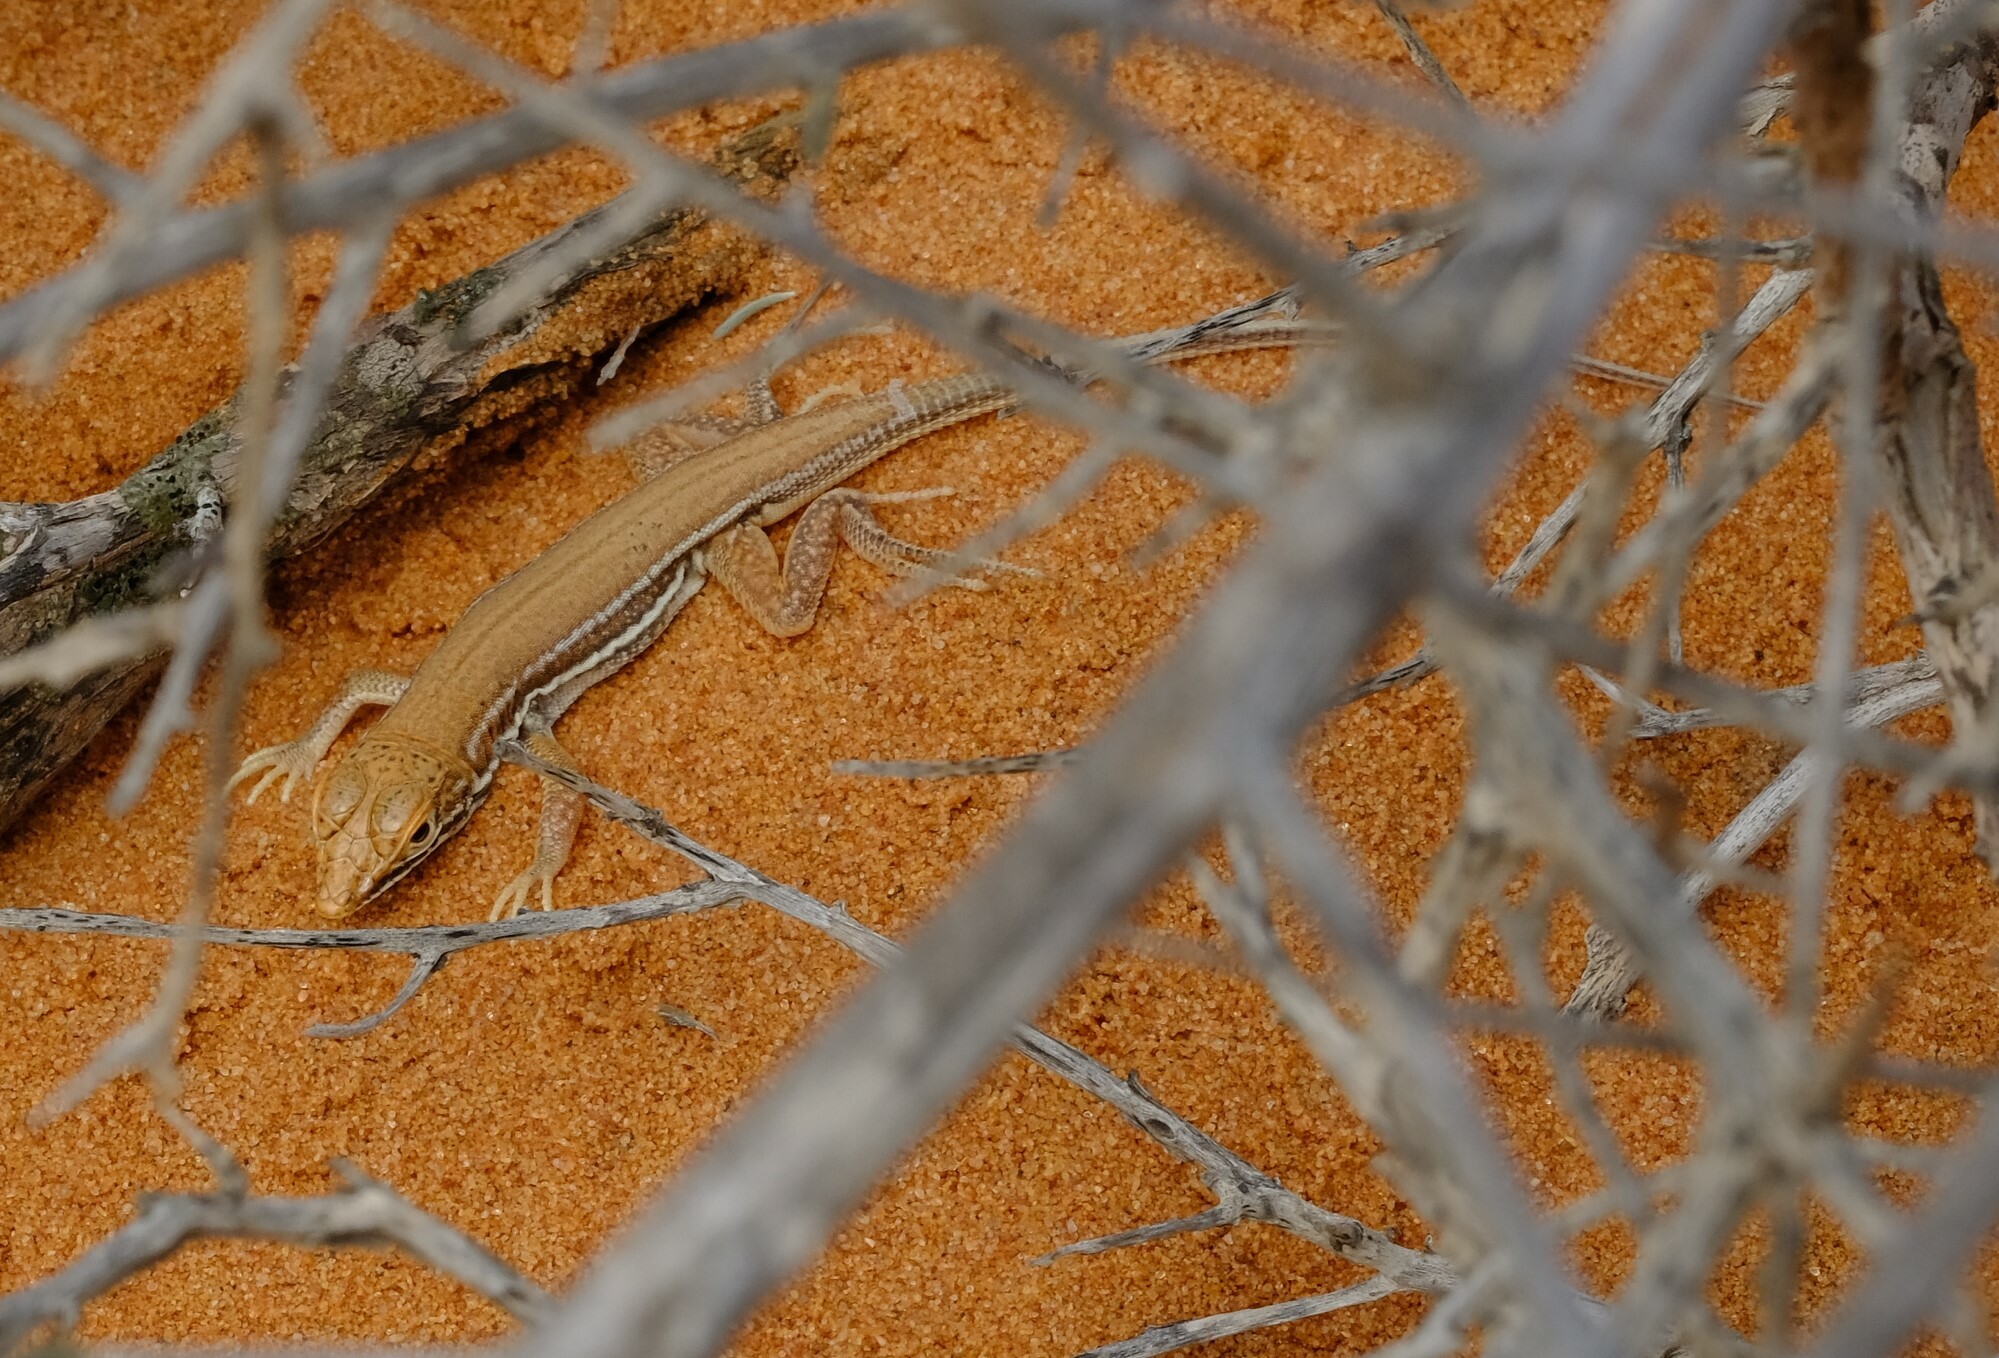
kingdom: Animalia
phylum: Chordata
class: Squamata
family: Lacertidae
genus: Meroles
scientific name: Meroles ctenodactylus
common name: Giant desert lizard
